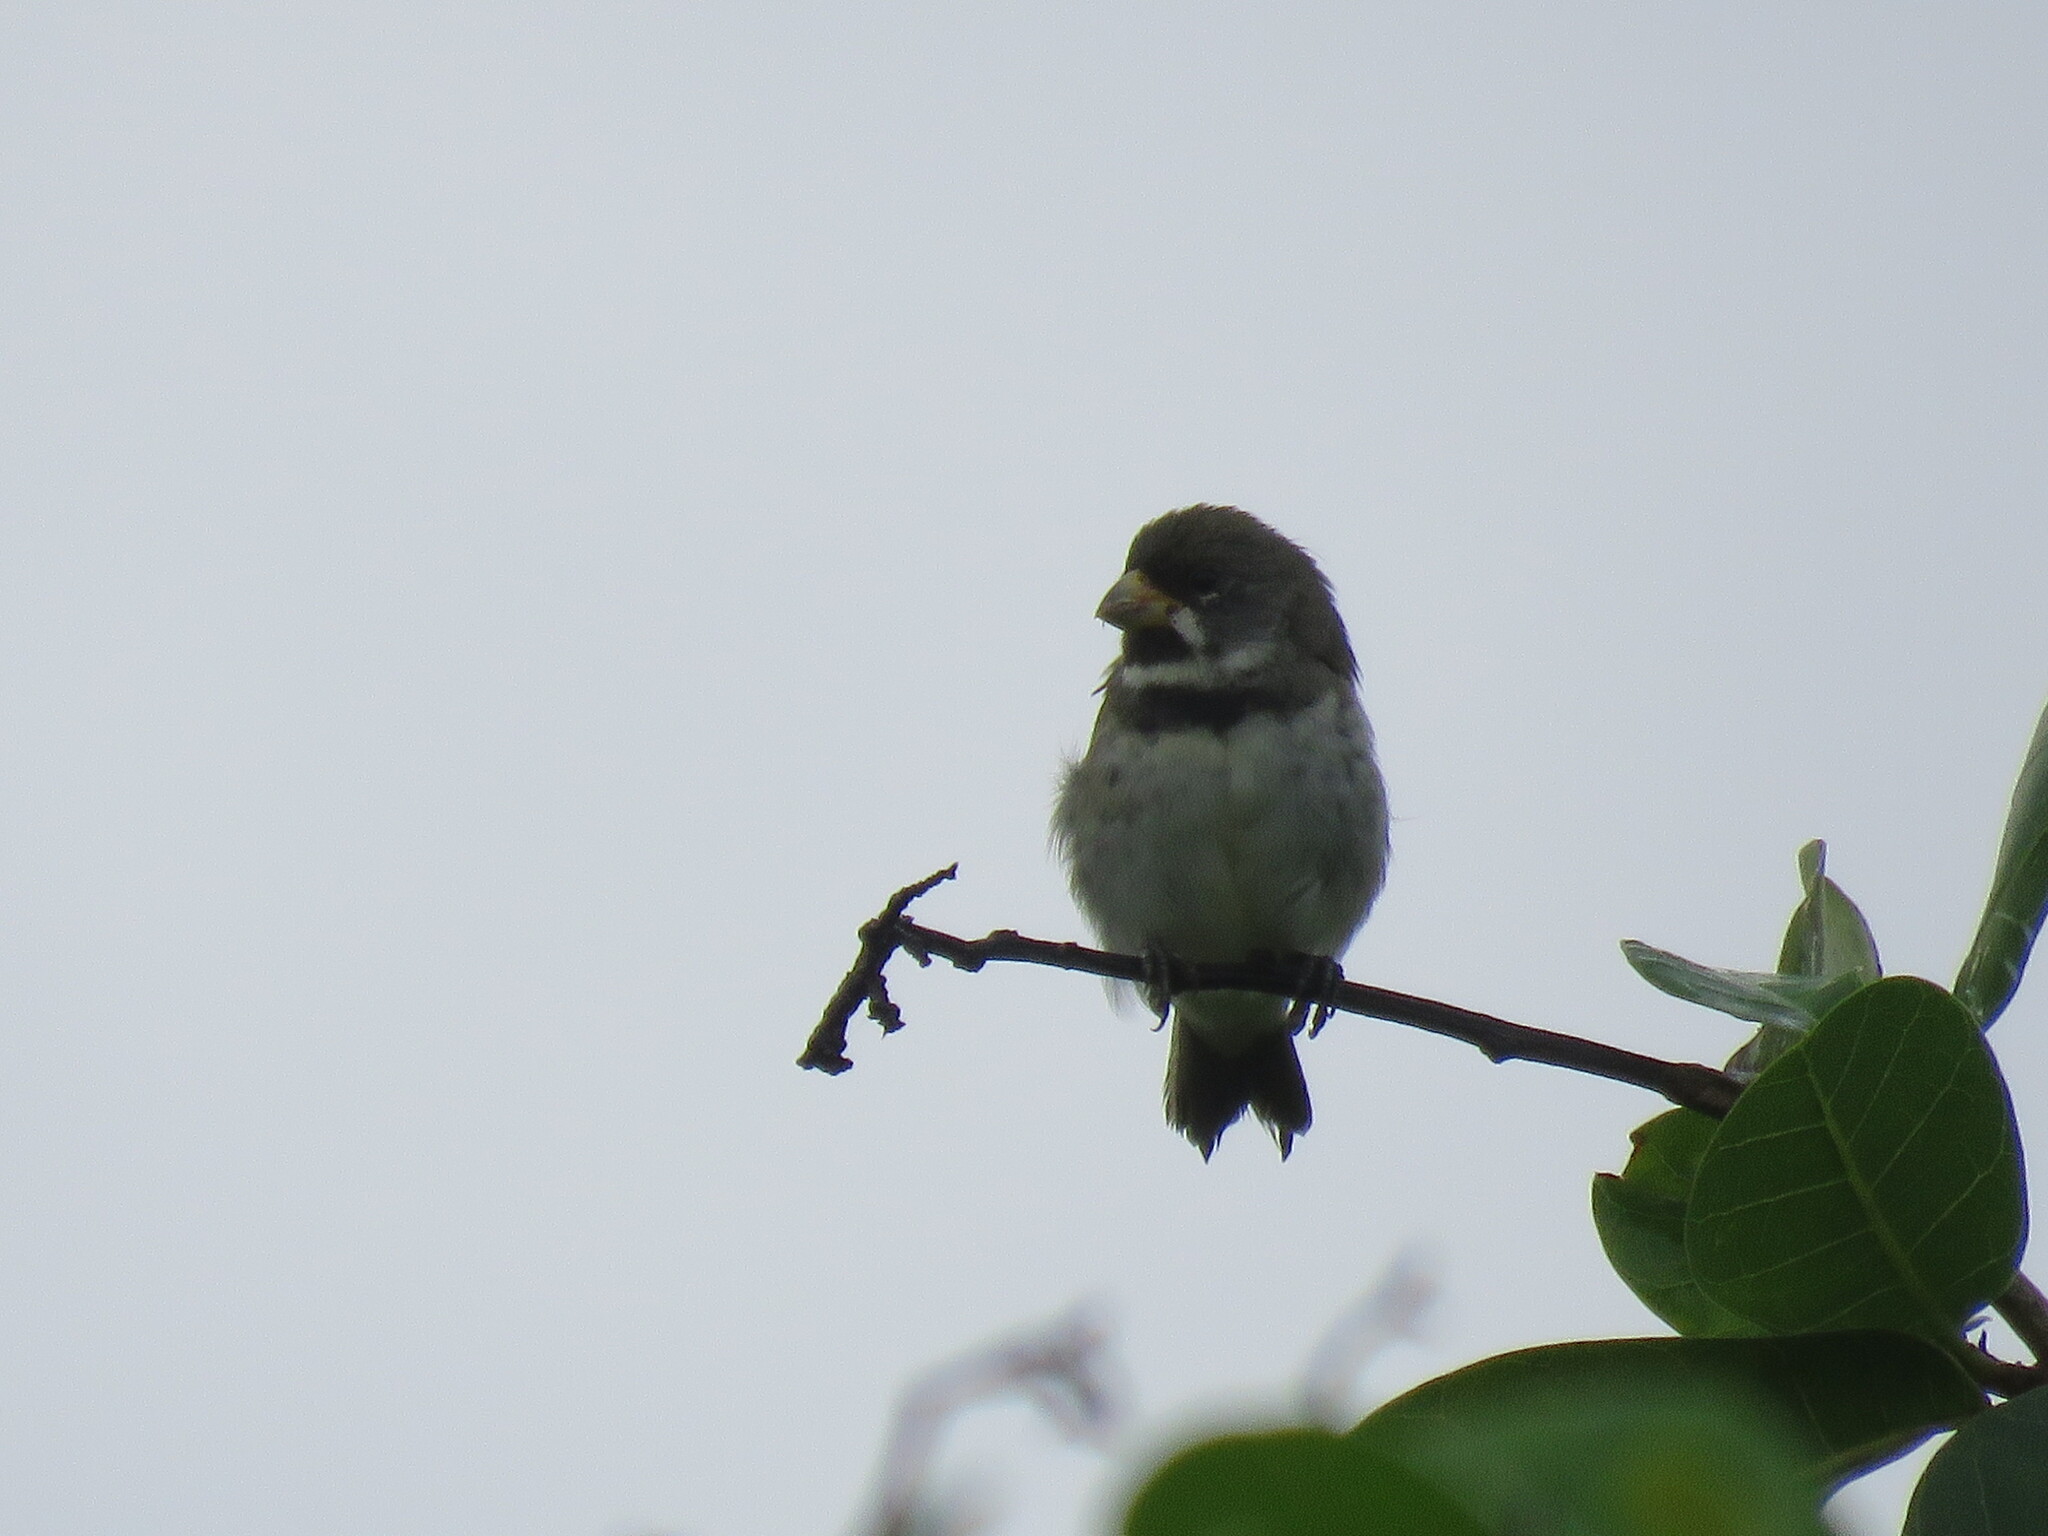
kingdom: Animalia
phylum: Chordata
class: Aves
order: Passeriformes
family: Thraupidae
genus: Sporophila
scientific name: Sporophila caerulescens
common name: Double-collared seedeater
